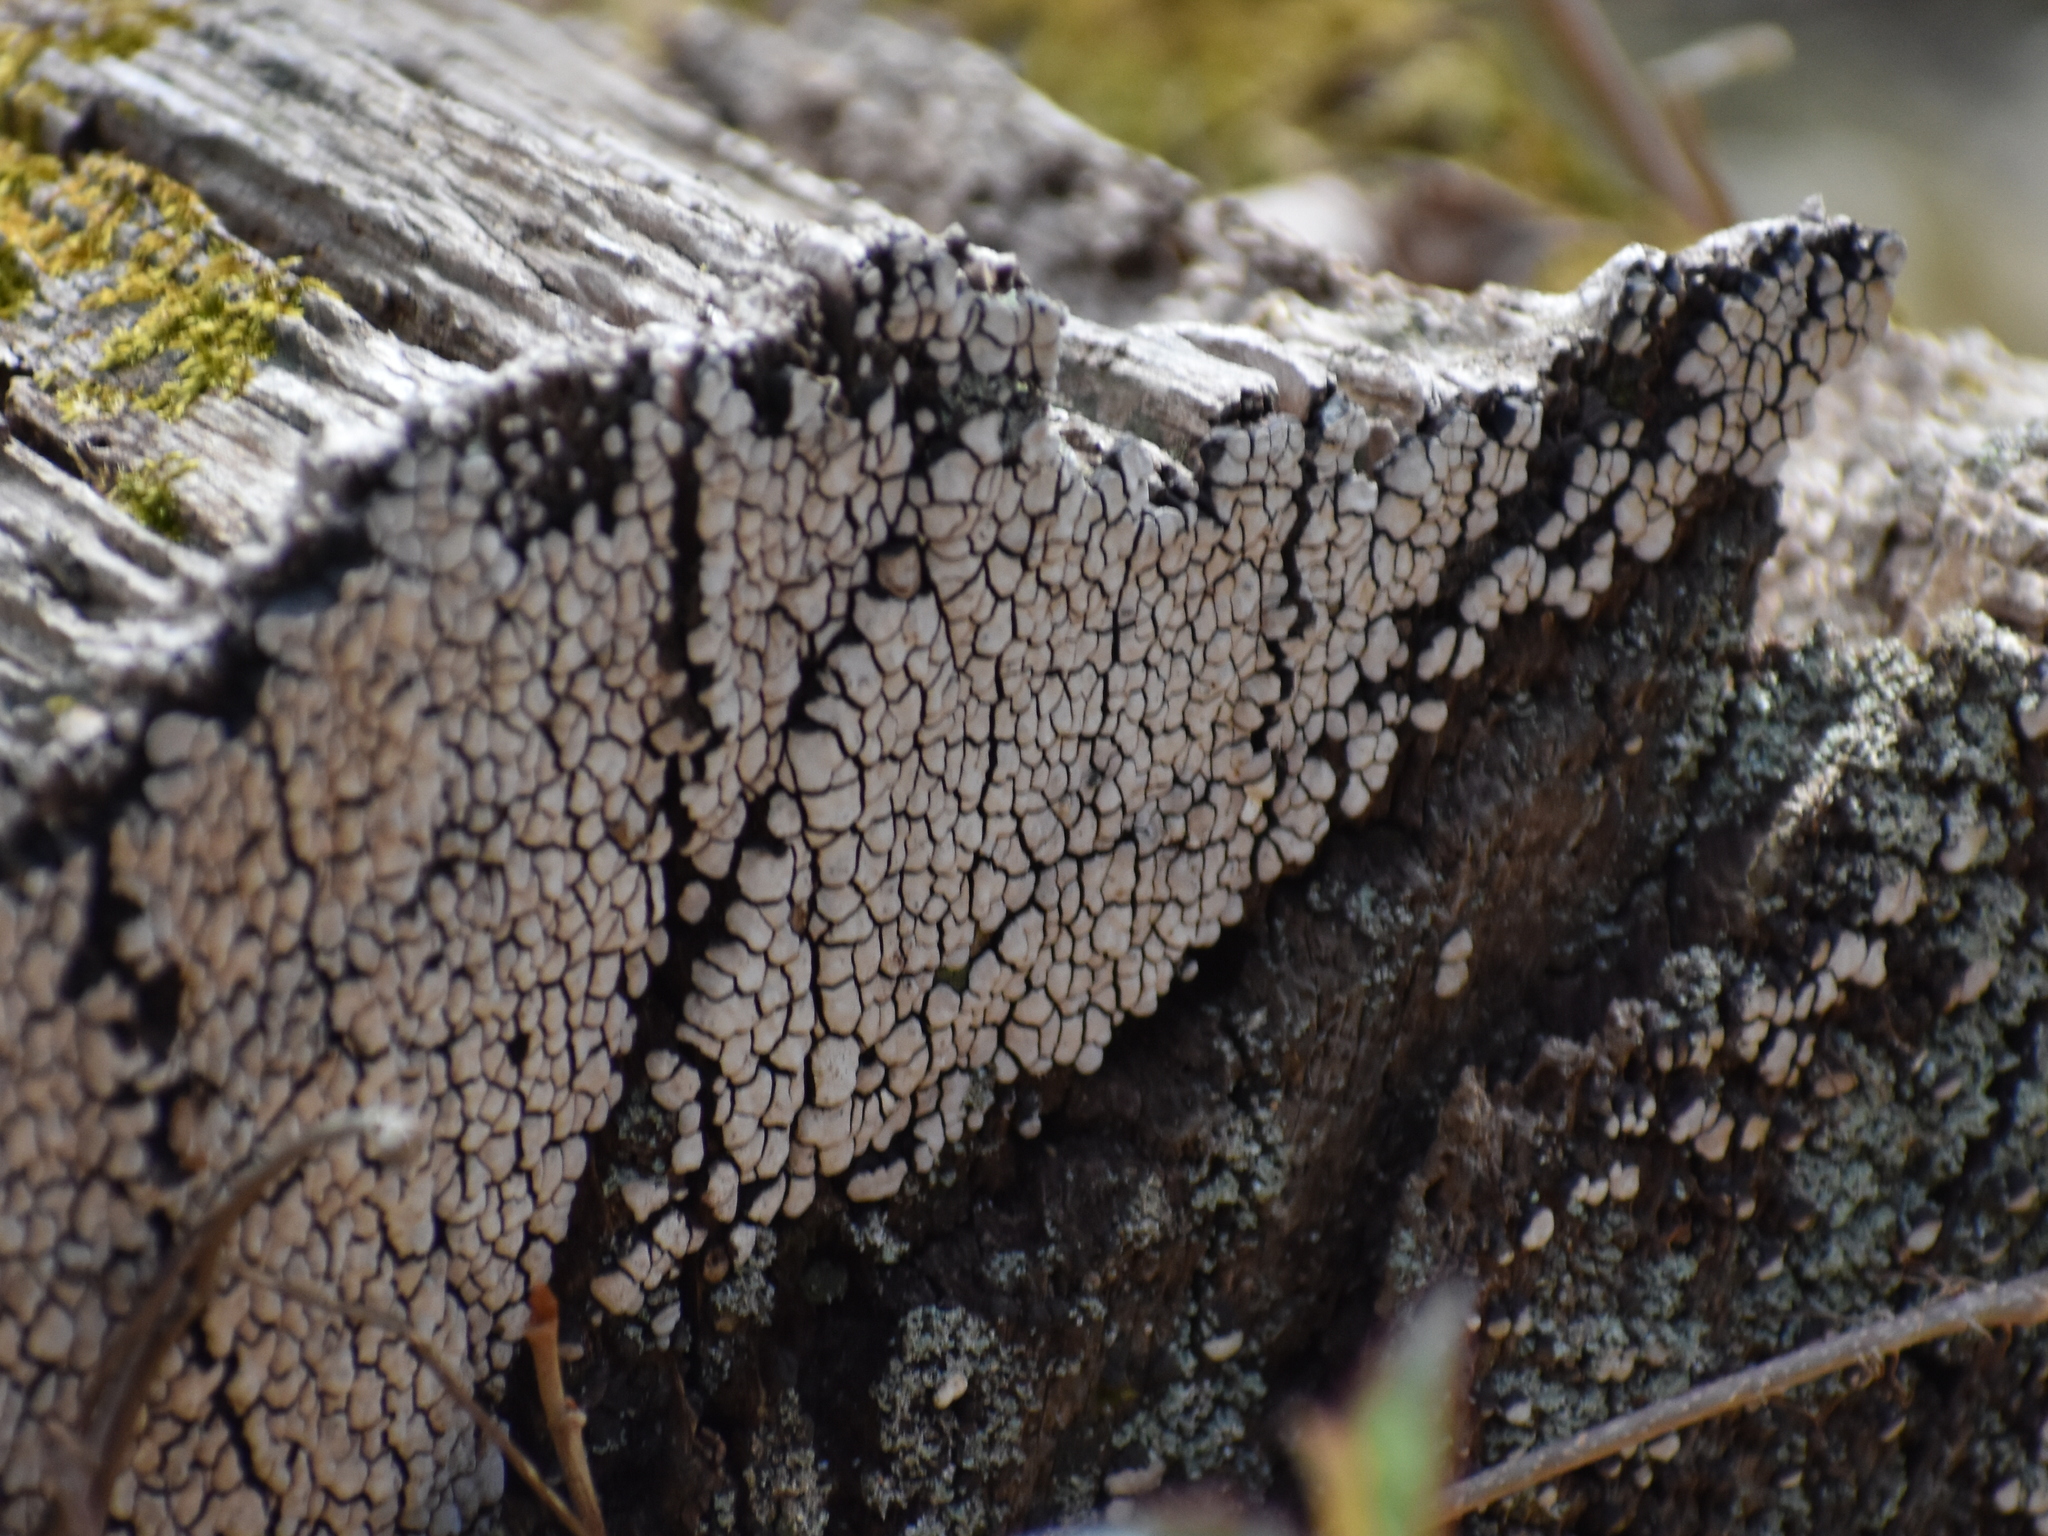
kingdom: Fungi
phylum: Basidiomycota
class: Agaricomycetes
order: Russulales
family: Stereaceae
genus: Xylobolus
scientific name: Xylobolus frustulatus
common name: Ceramic parchment
